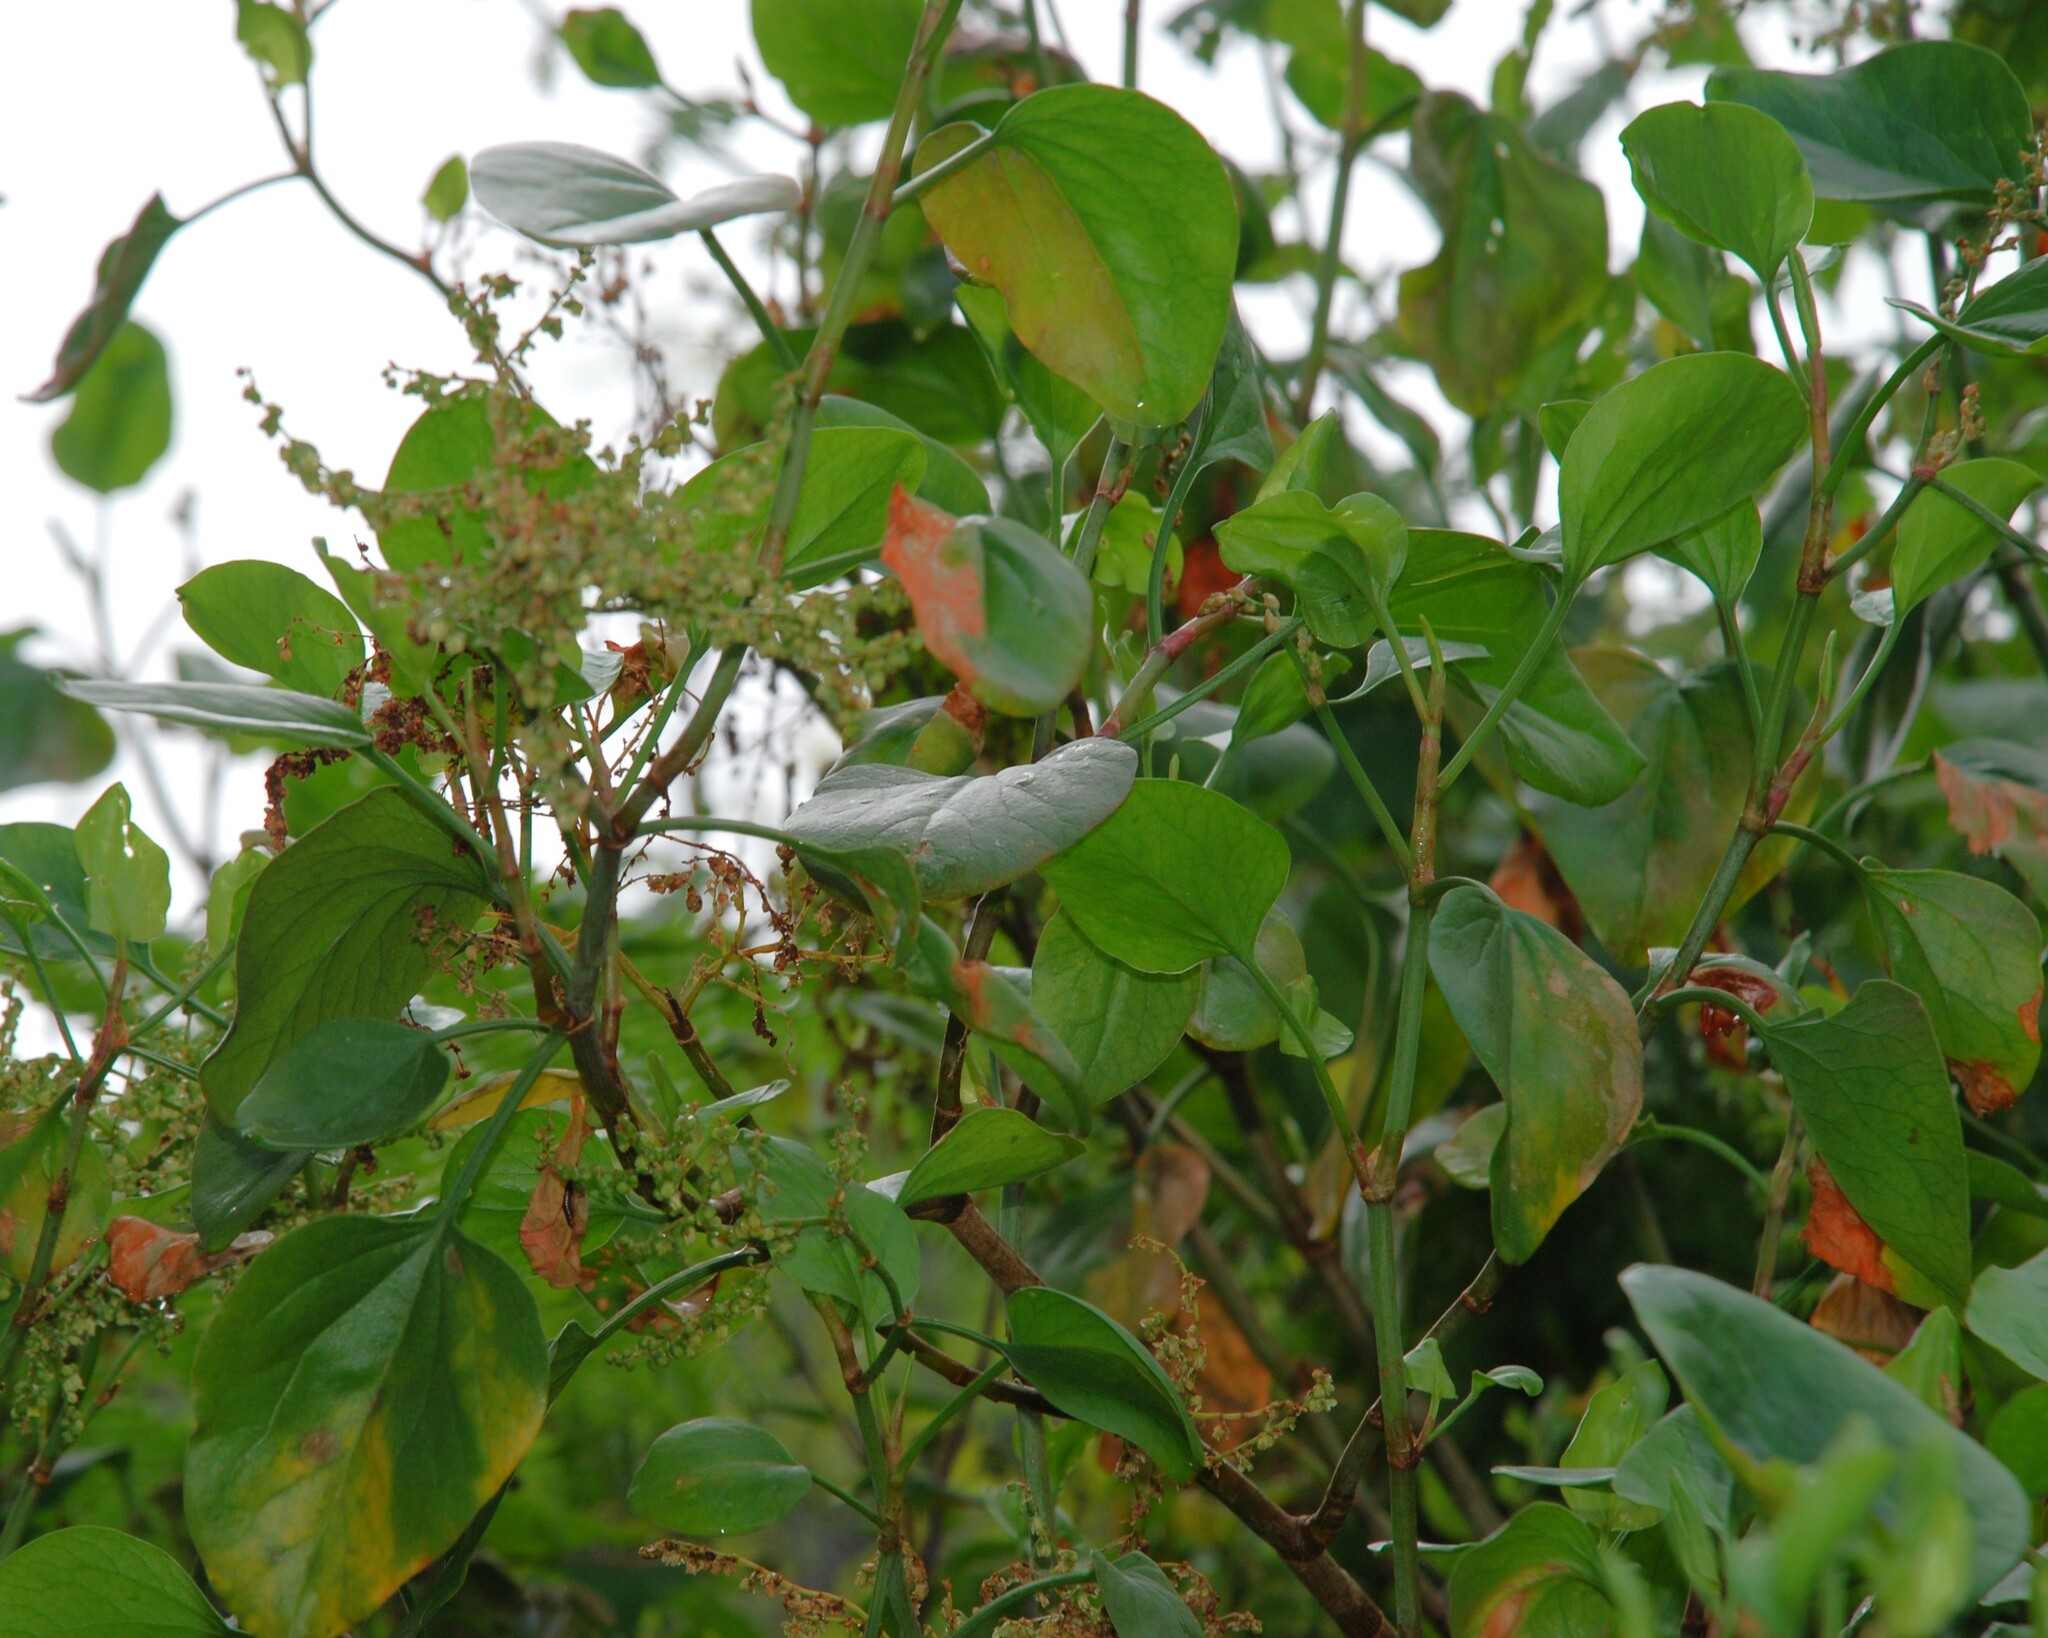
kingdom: Plantae
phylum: Tracheophyta
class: Magnoliopsida
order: Caryophyllales
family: Polygonaceae
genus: Rumex
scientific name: Rumex lunaria
